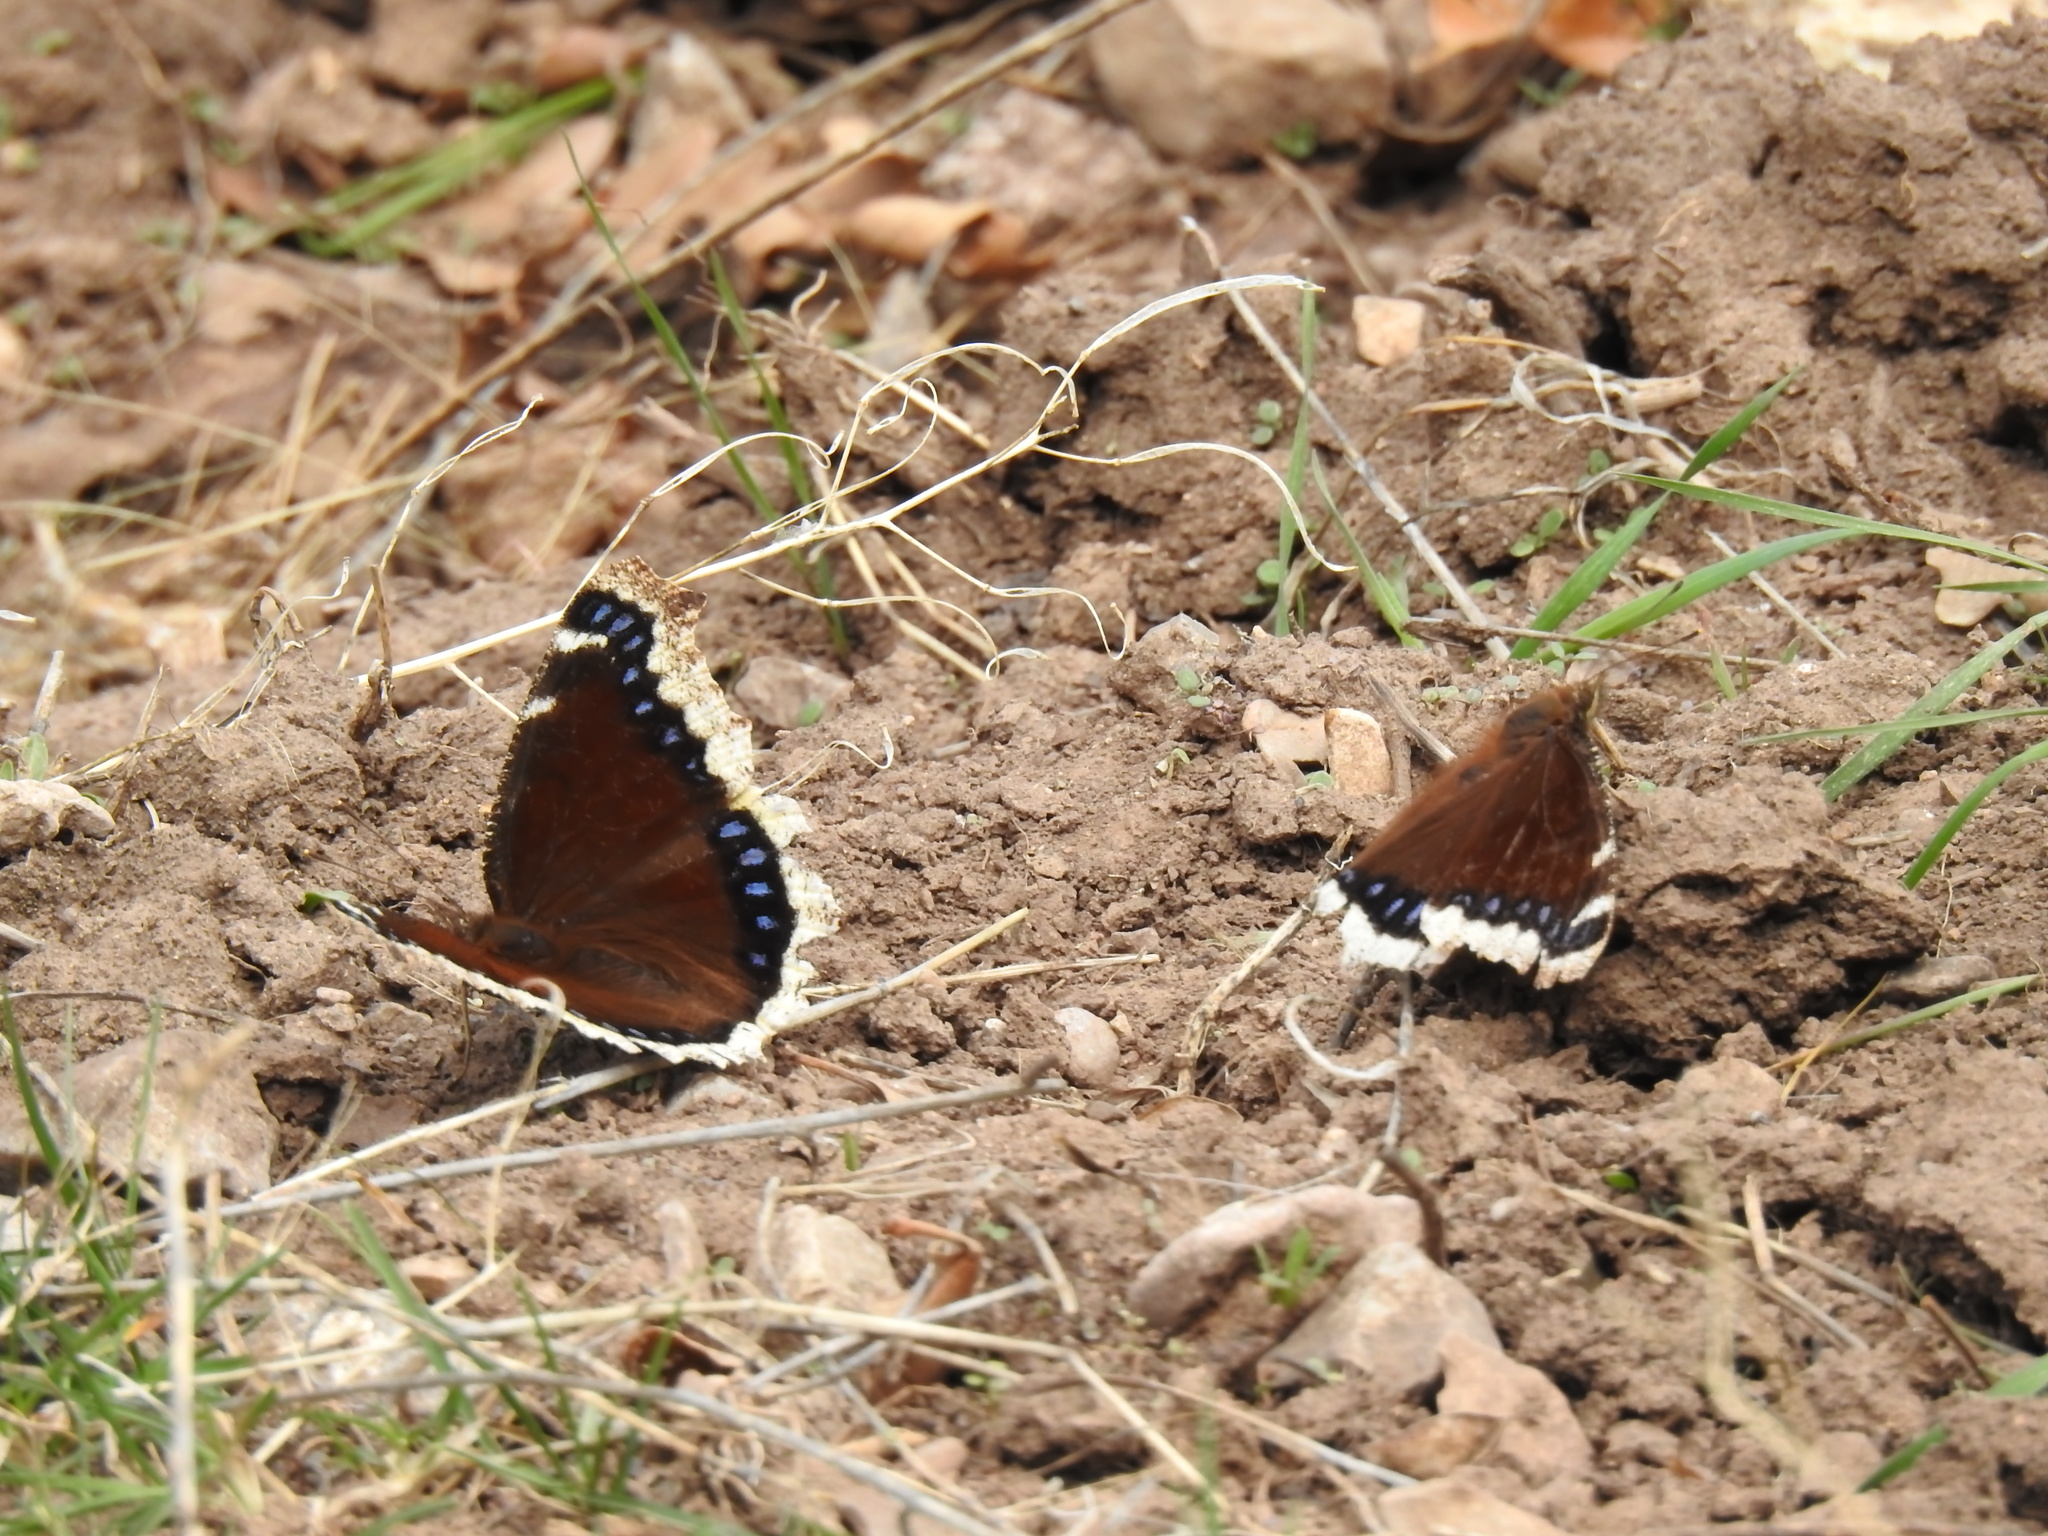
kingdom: Animalia
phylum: Arthropoda
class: Insecta
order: Lepidoptera
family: Nymphalidae
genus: Nymphalis
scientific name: Nymphalis antiopa
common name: Camberwell beauty
